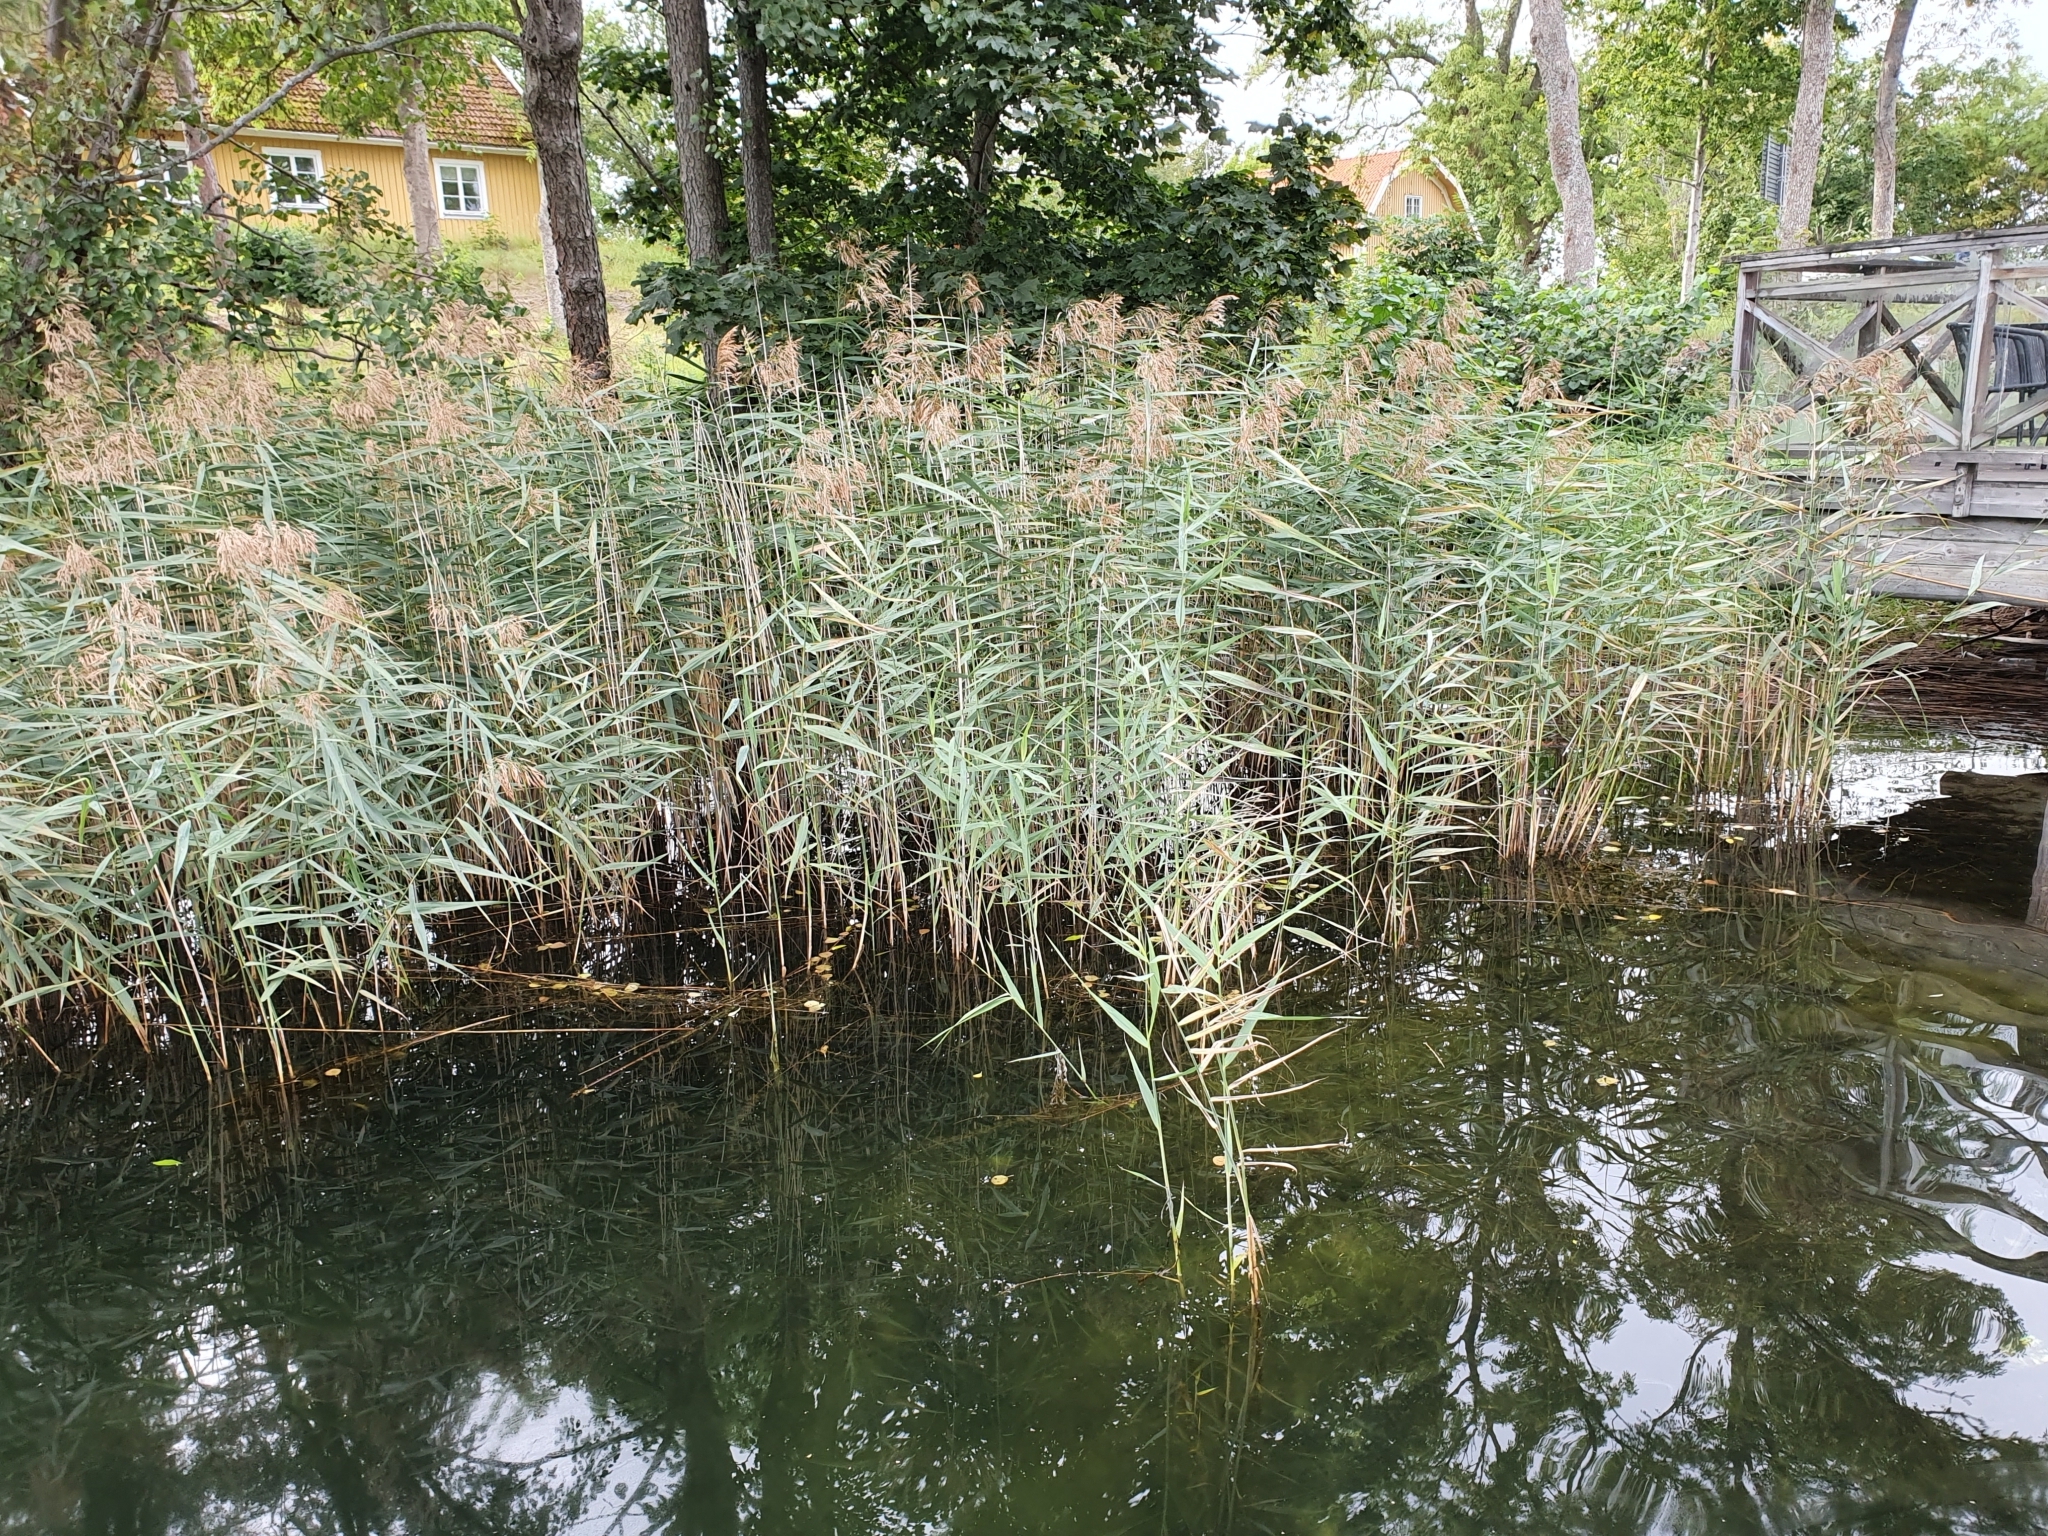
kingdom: Plantae
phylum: Tracheophyta
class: Liliopsida
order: Poales
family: Poaceae
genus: Phragmites
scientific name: Phragmites australis
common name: Common reed
